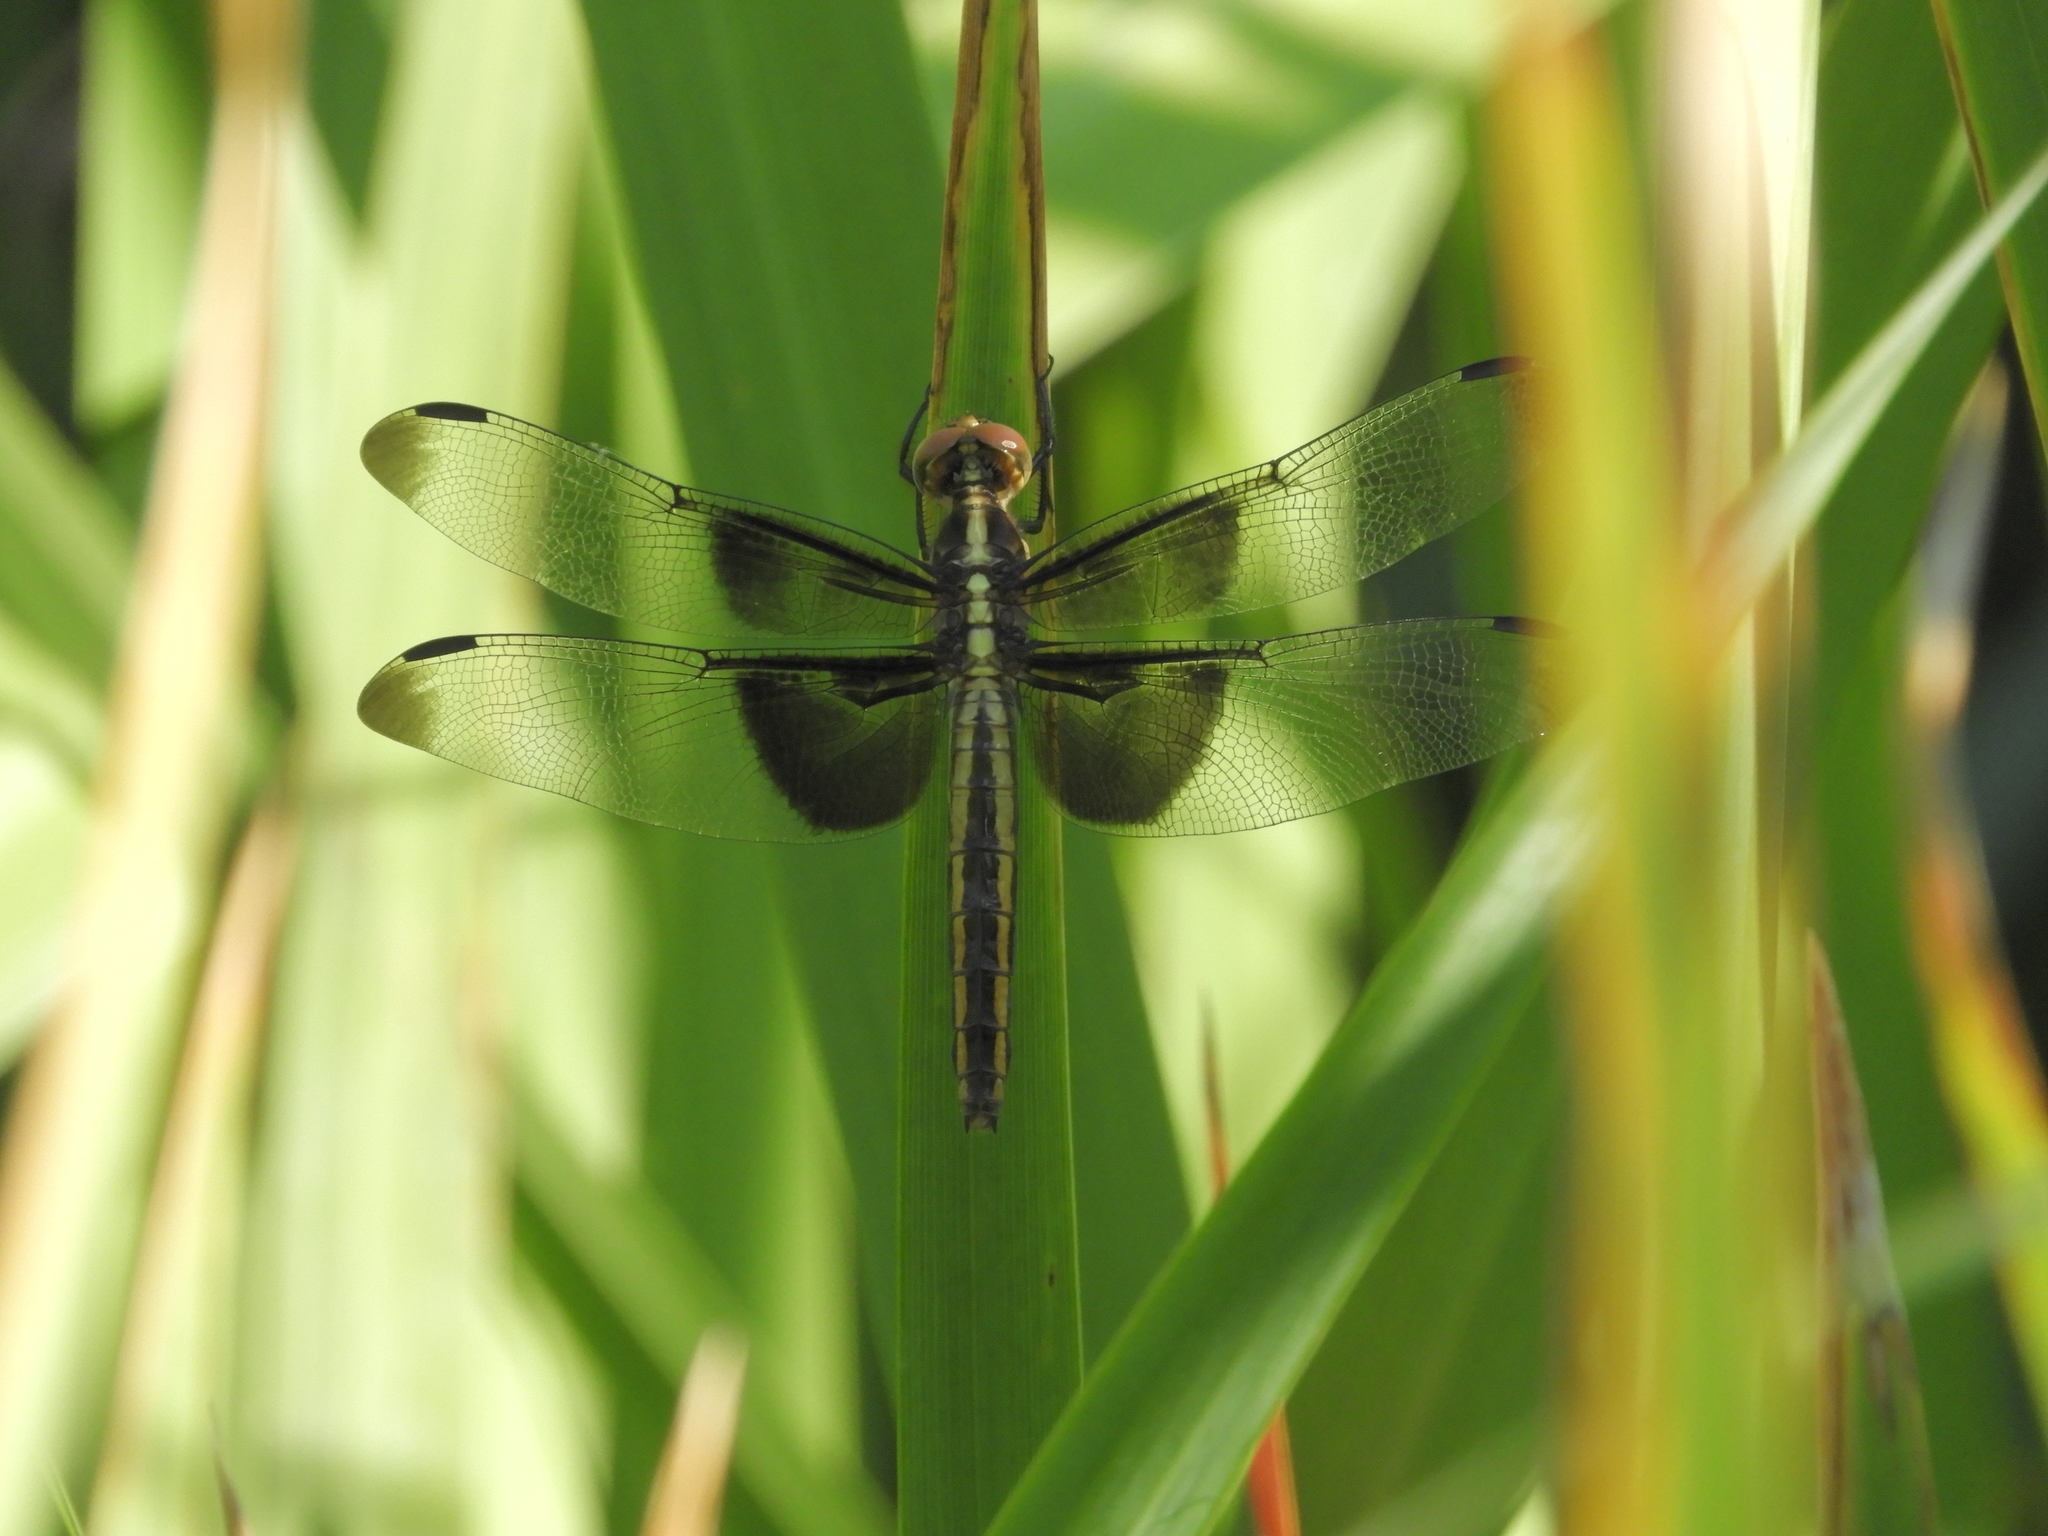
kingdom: Animalia
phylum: Arthropoda
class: Insecta
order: Odonata
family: Libellulidae
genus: Libellula
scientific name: Libellula luctuosa
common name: Widow skimmer
